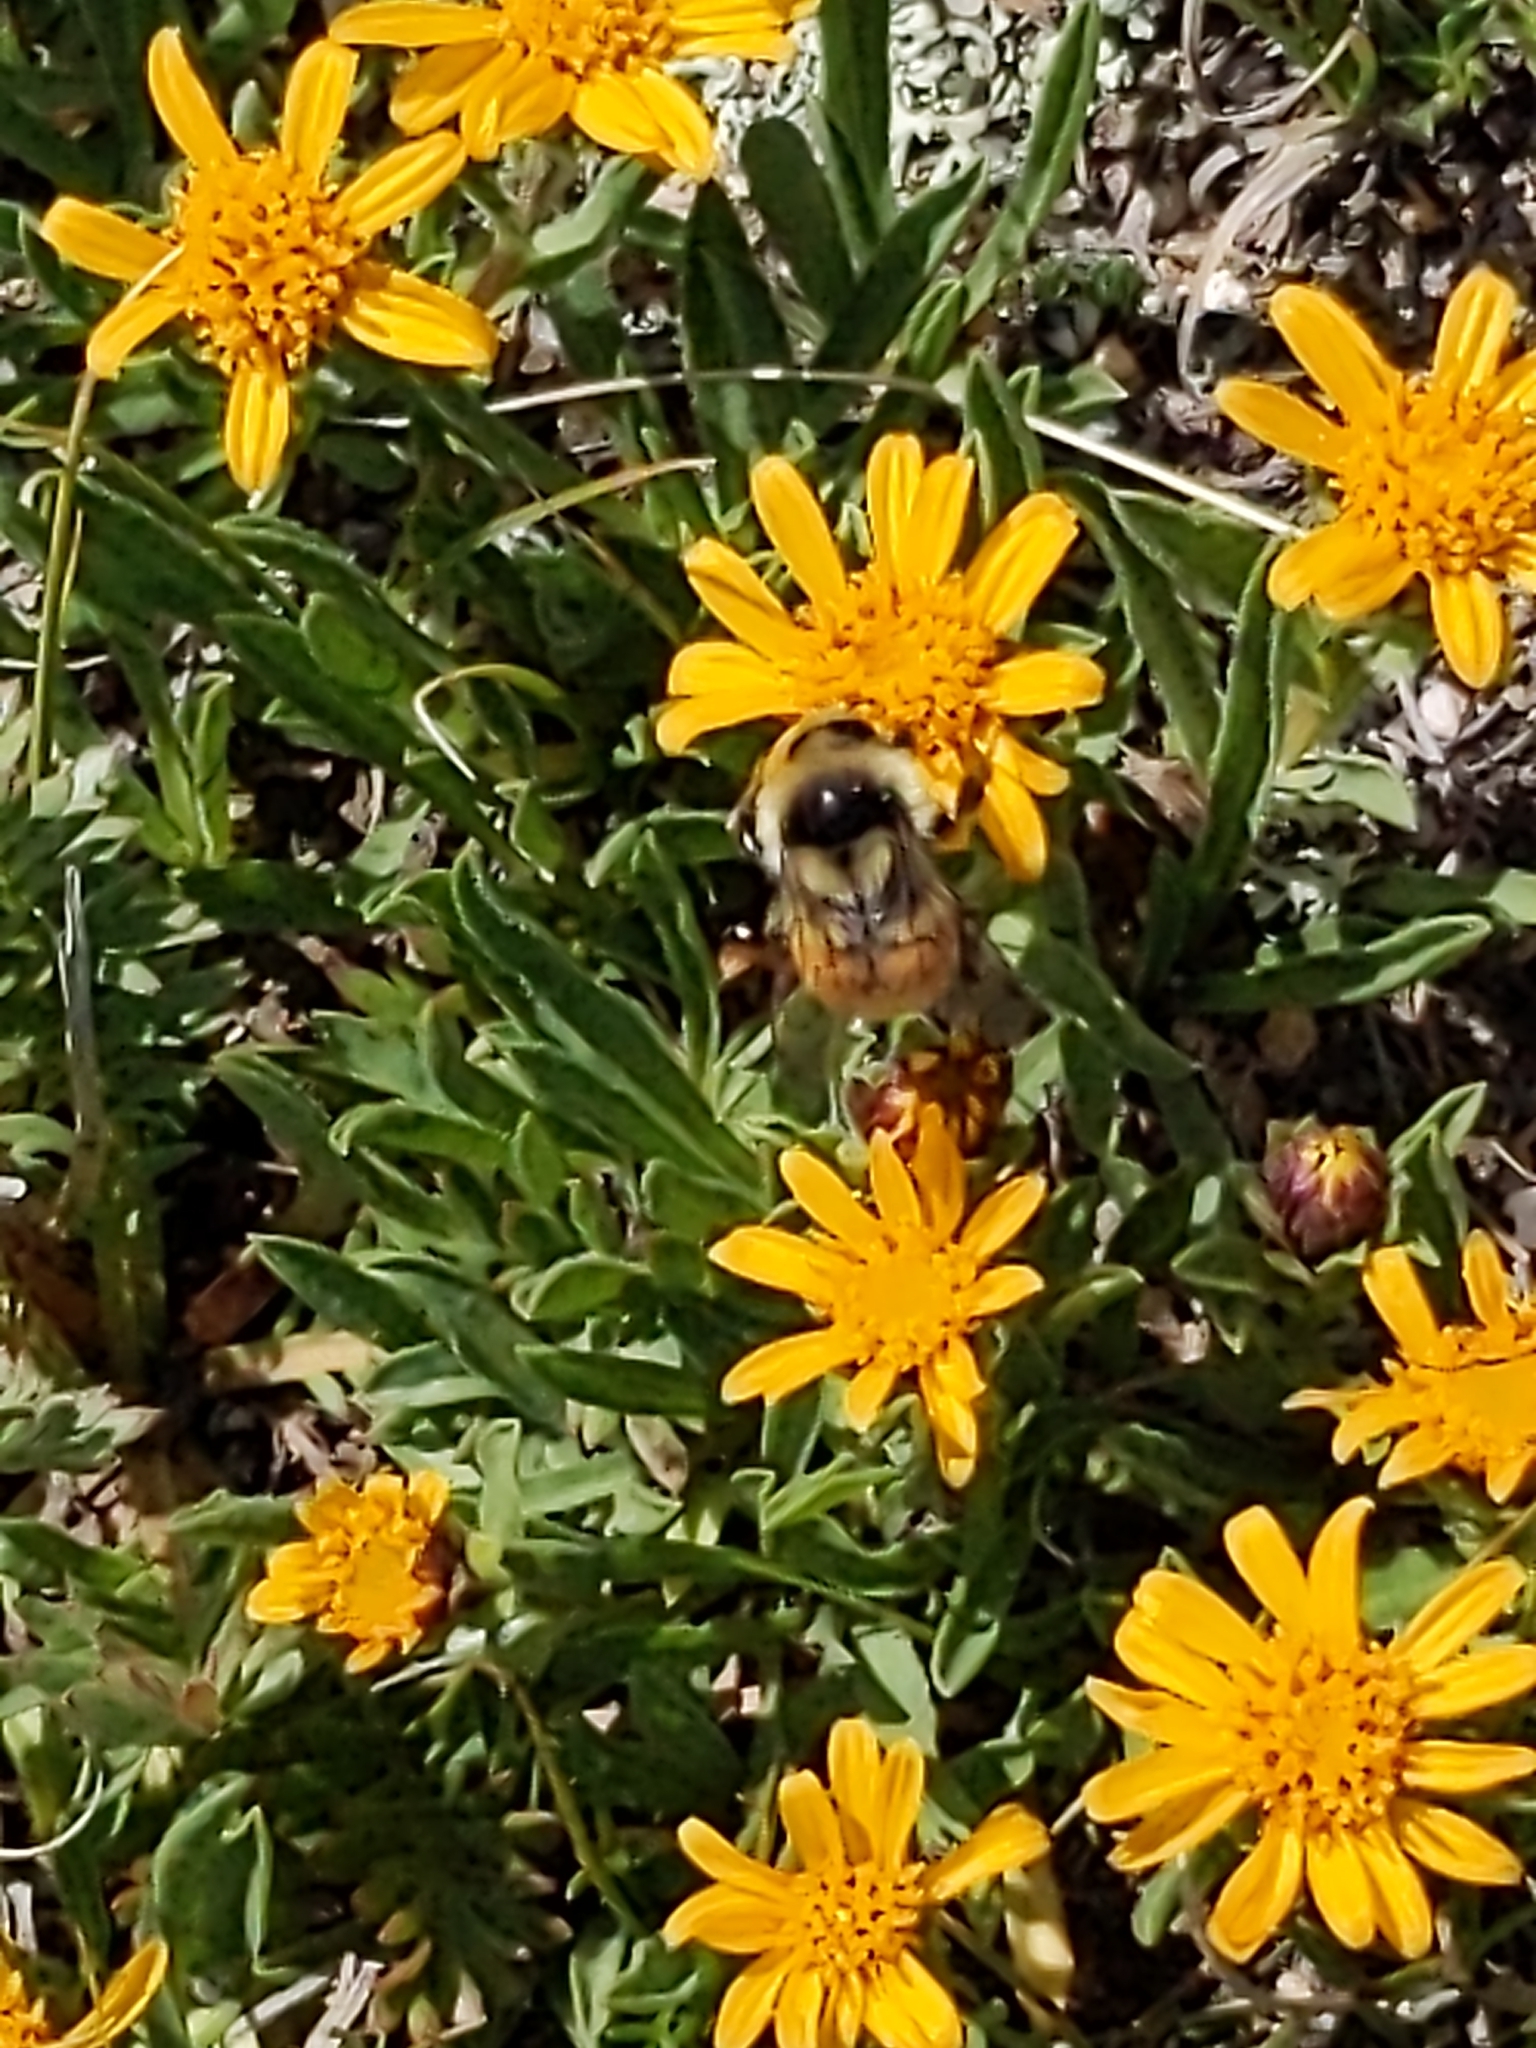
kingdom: Animalia
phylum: Arthropoda
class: Insecta
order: Hymenoptera
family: Apidae
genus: Bombus
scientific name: Bombus bifarius
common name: Two form bumble bee
